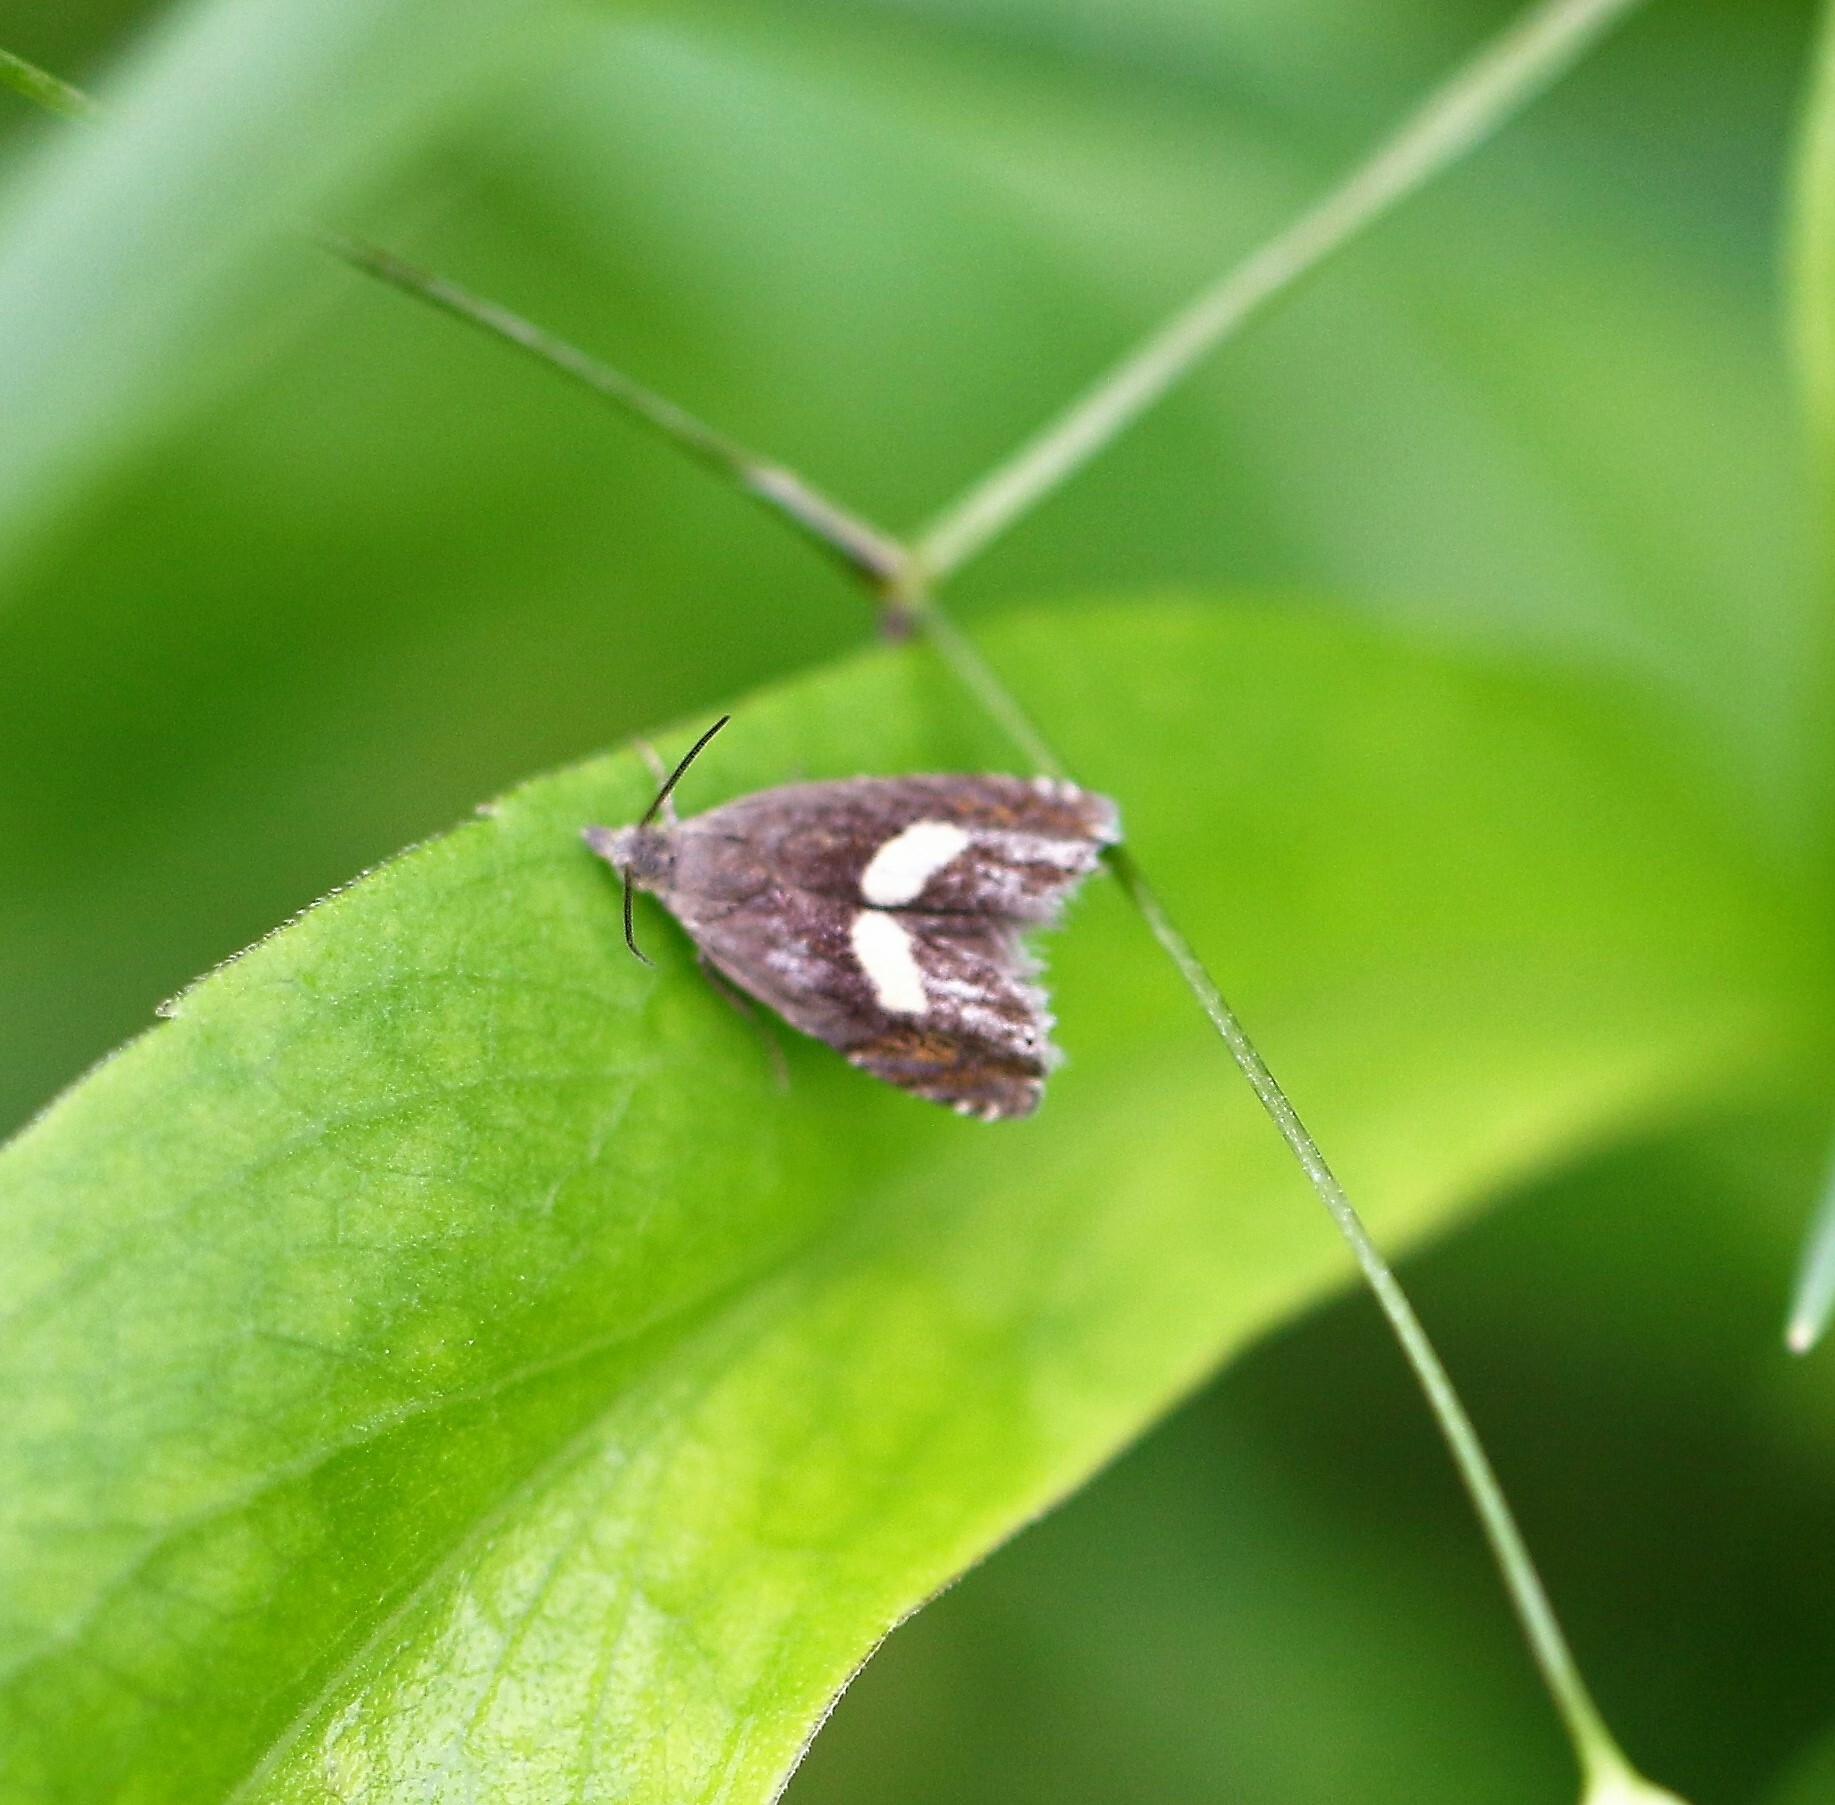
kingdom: Animalia
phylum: Arthropoda
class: Insecta
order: Lepidoptera
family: Tortricidae
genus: Dichrorampha
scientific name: Dichrorampha petiverella
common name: Common drill
